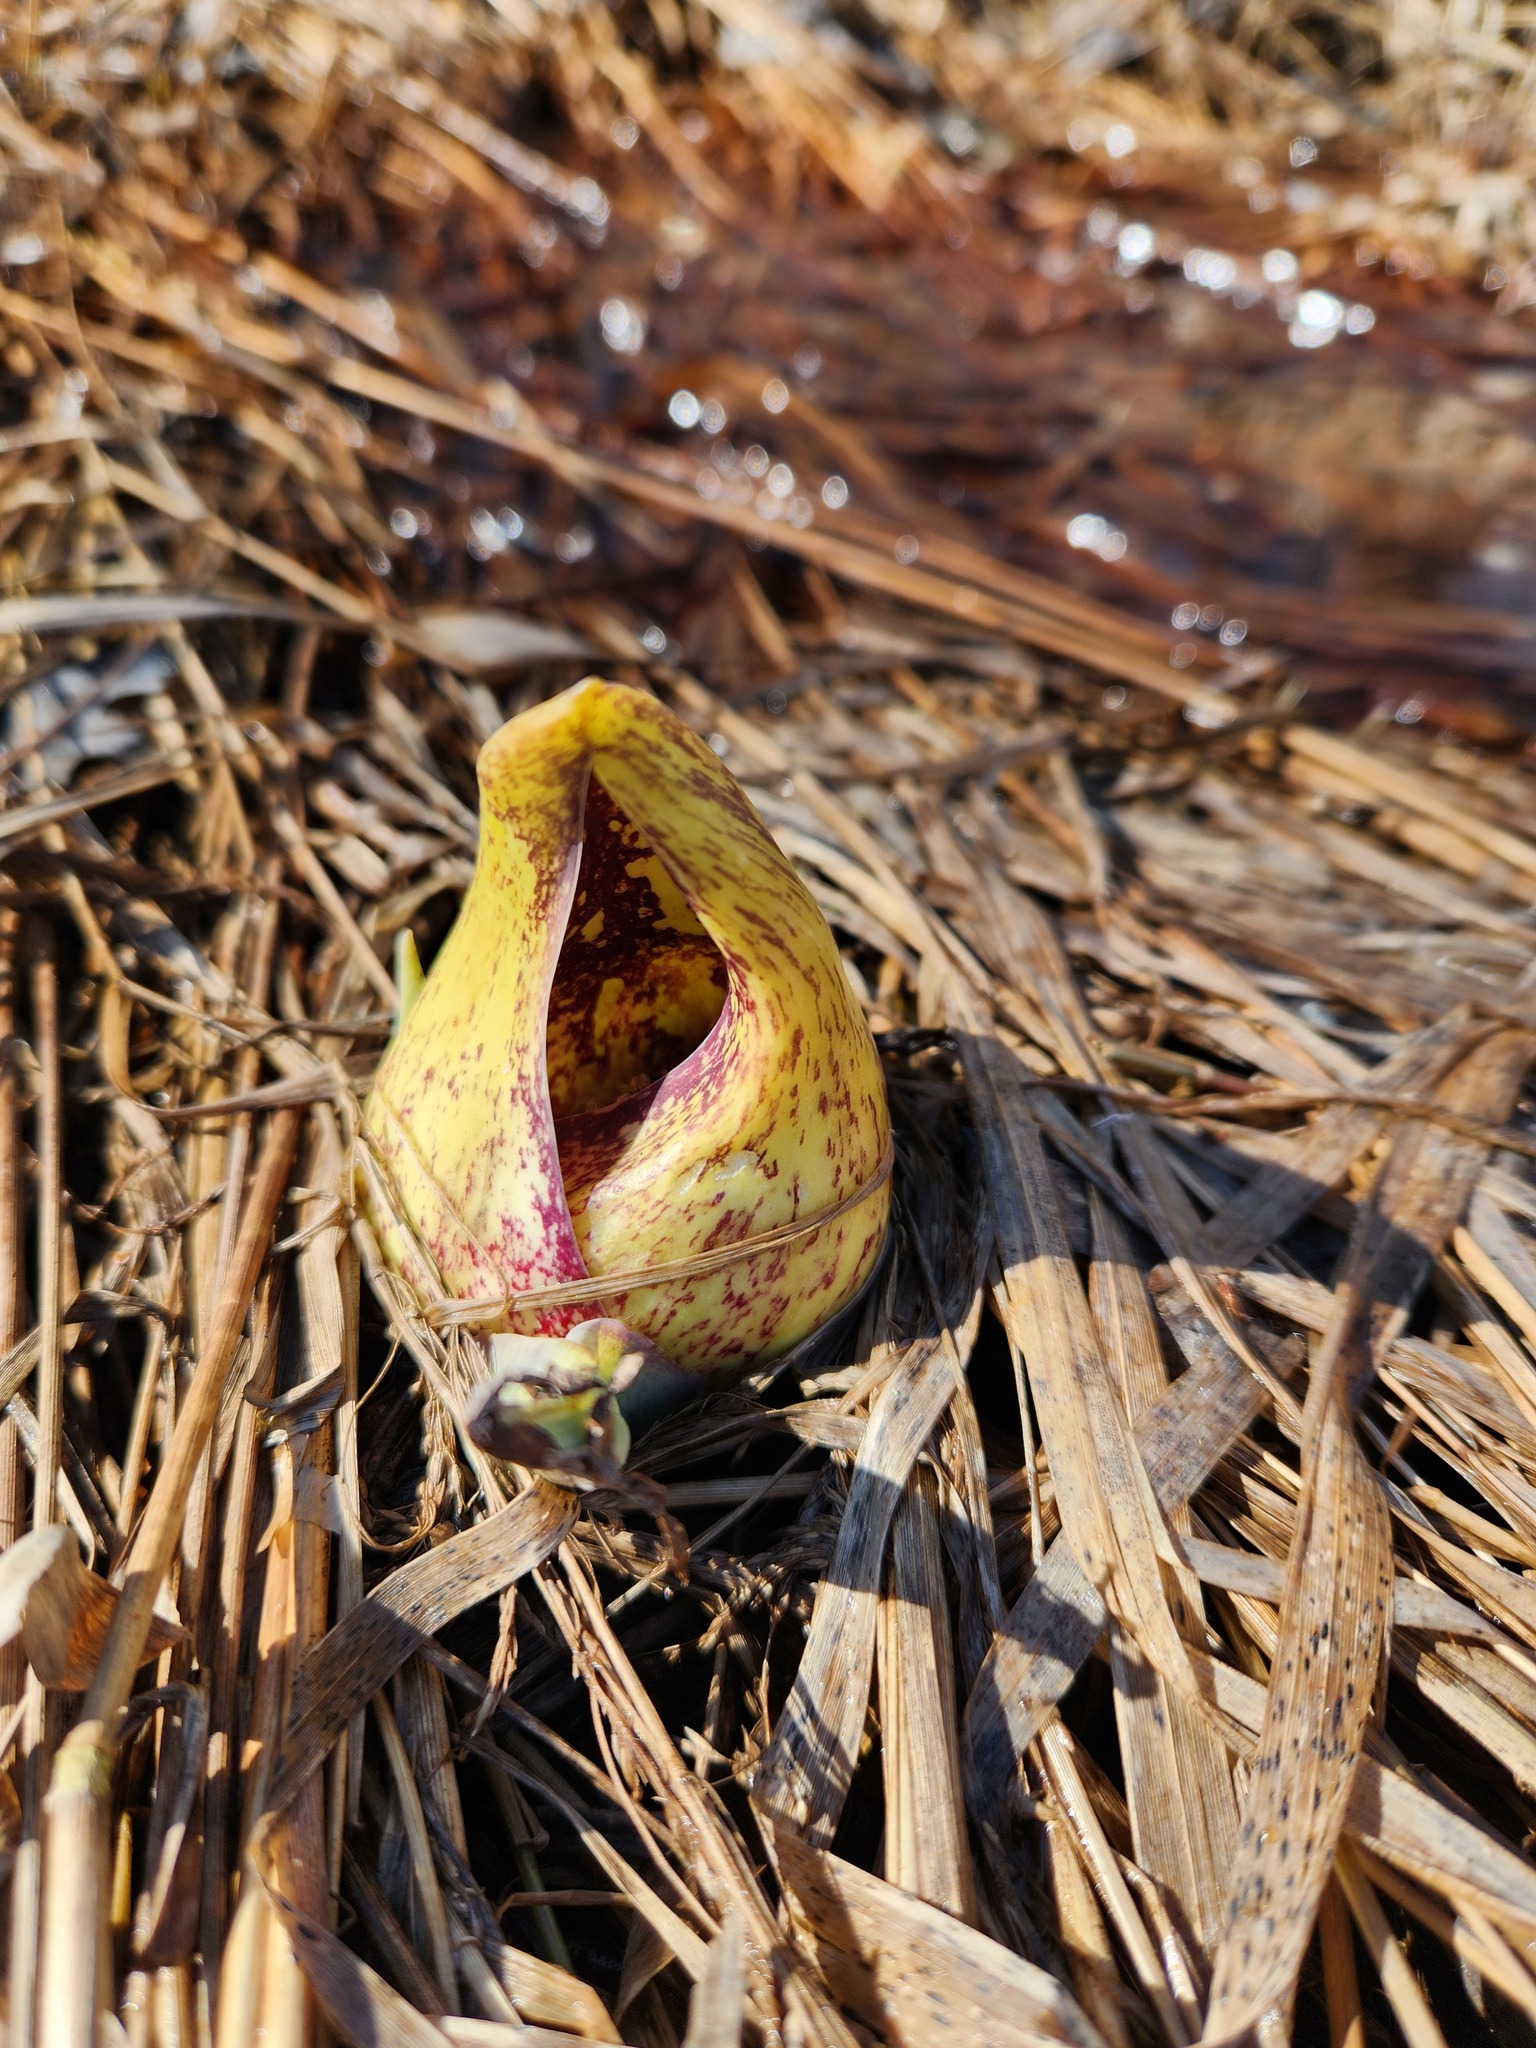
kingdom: Plantae
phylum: Tracheophyta
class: Liliopsida
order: Alismatales
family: Araceae
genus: Symplocarpus
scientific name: Symplocarpus foetidus
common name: Eastern skunk cabbage
